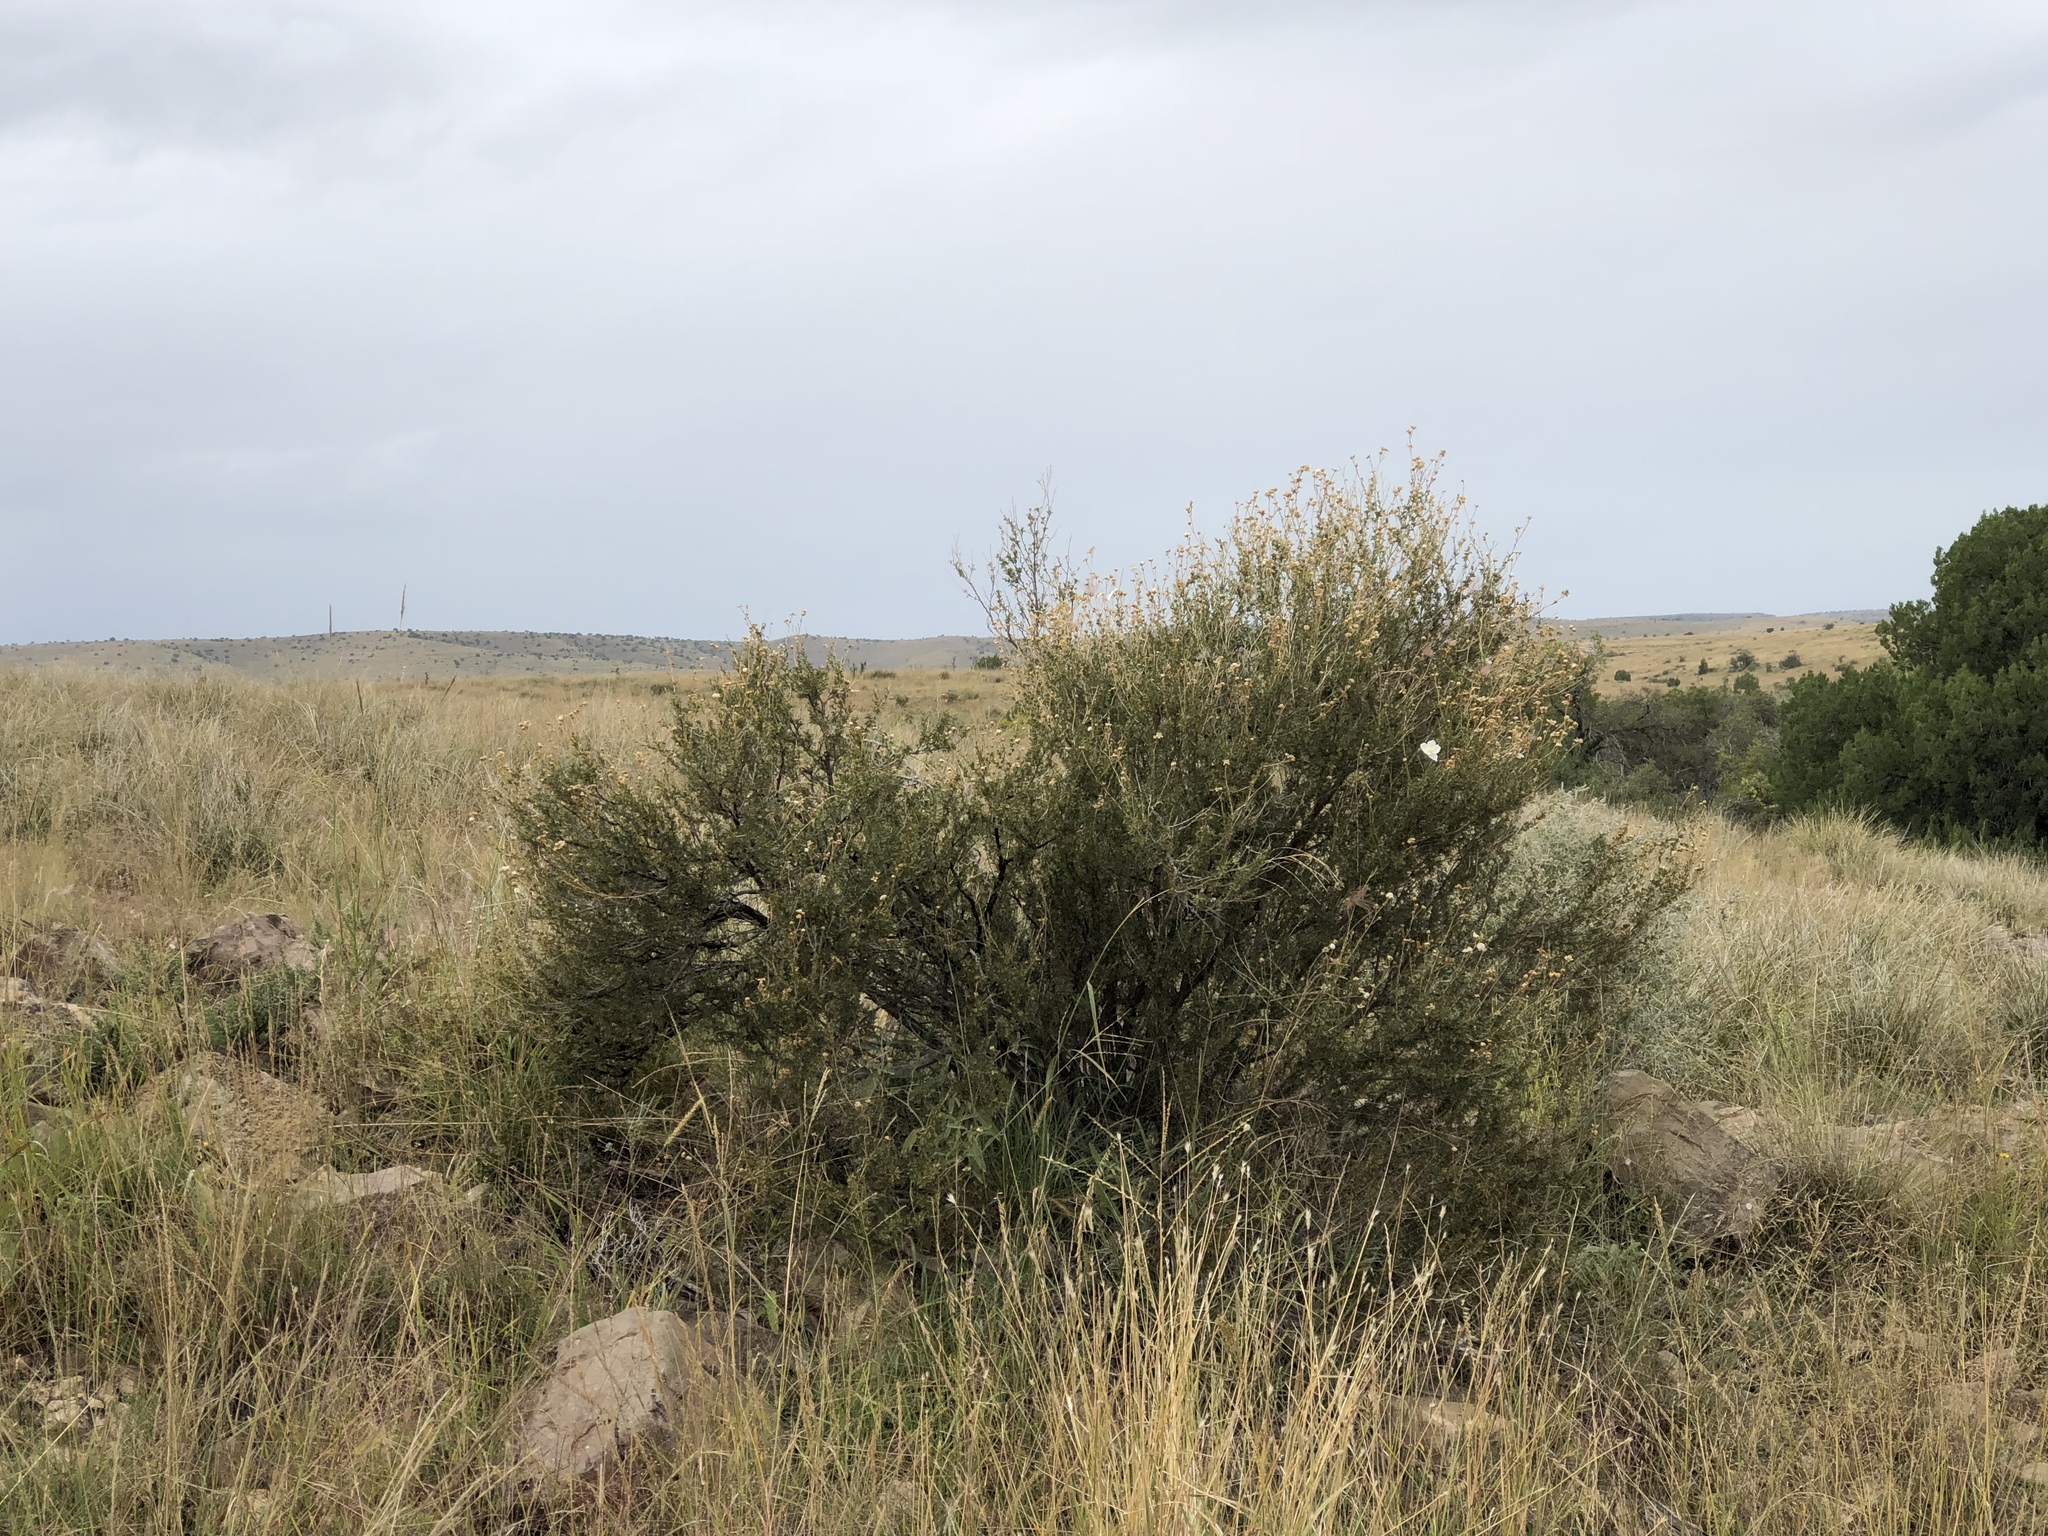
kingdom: Plantae
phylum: Tracheophyta
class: Magnoliopsida
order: Rosales
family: Rosaceae
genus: Fallugia
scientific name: Fallugia paradoxa
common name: Apache-plume
